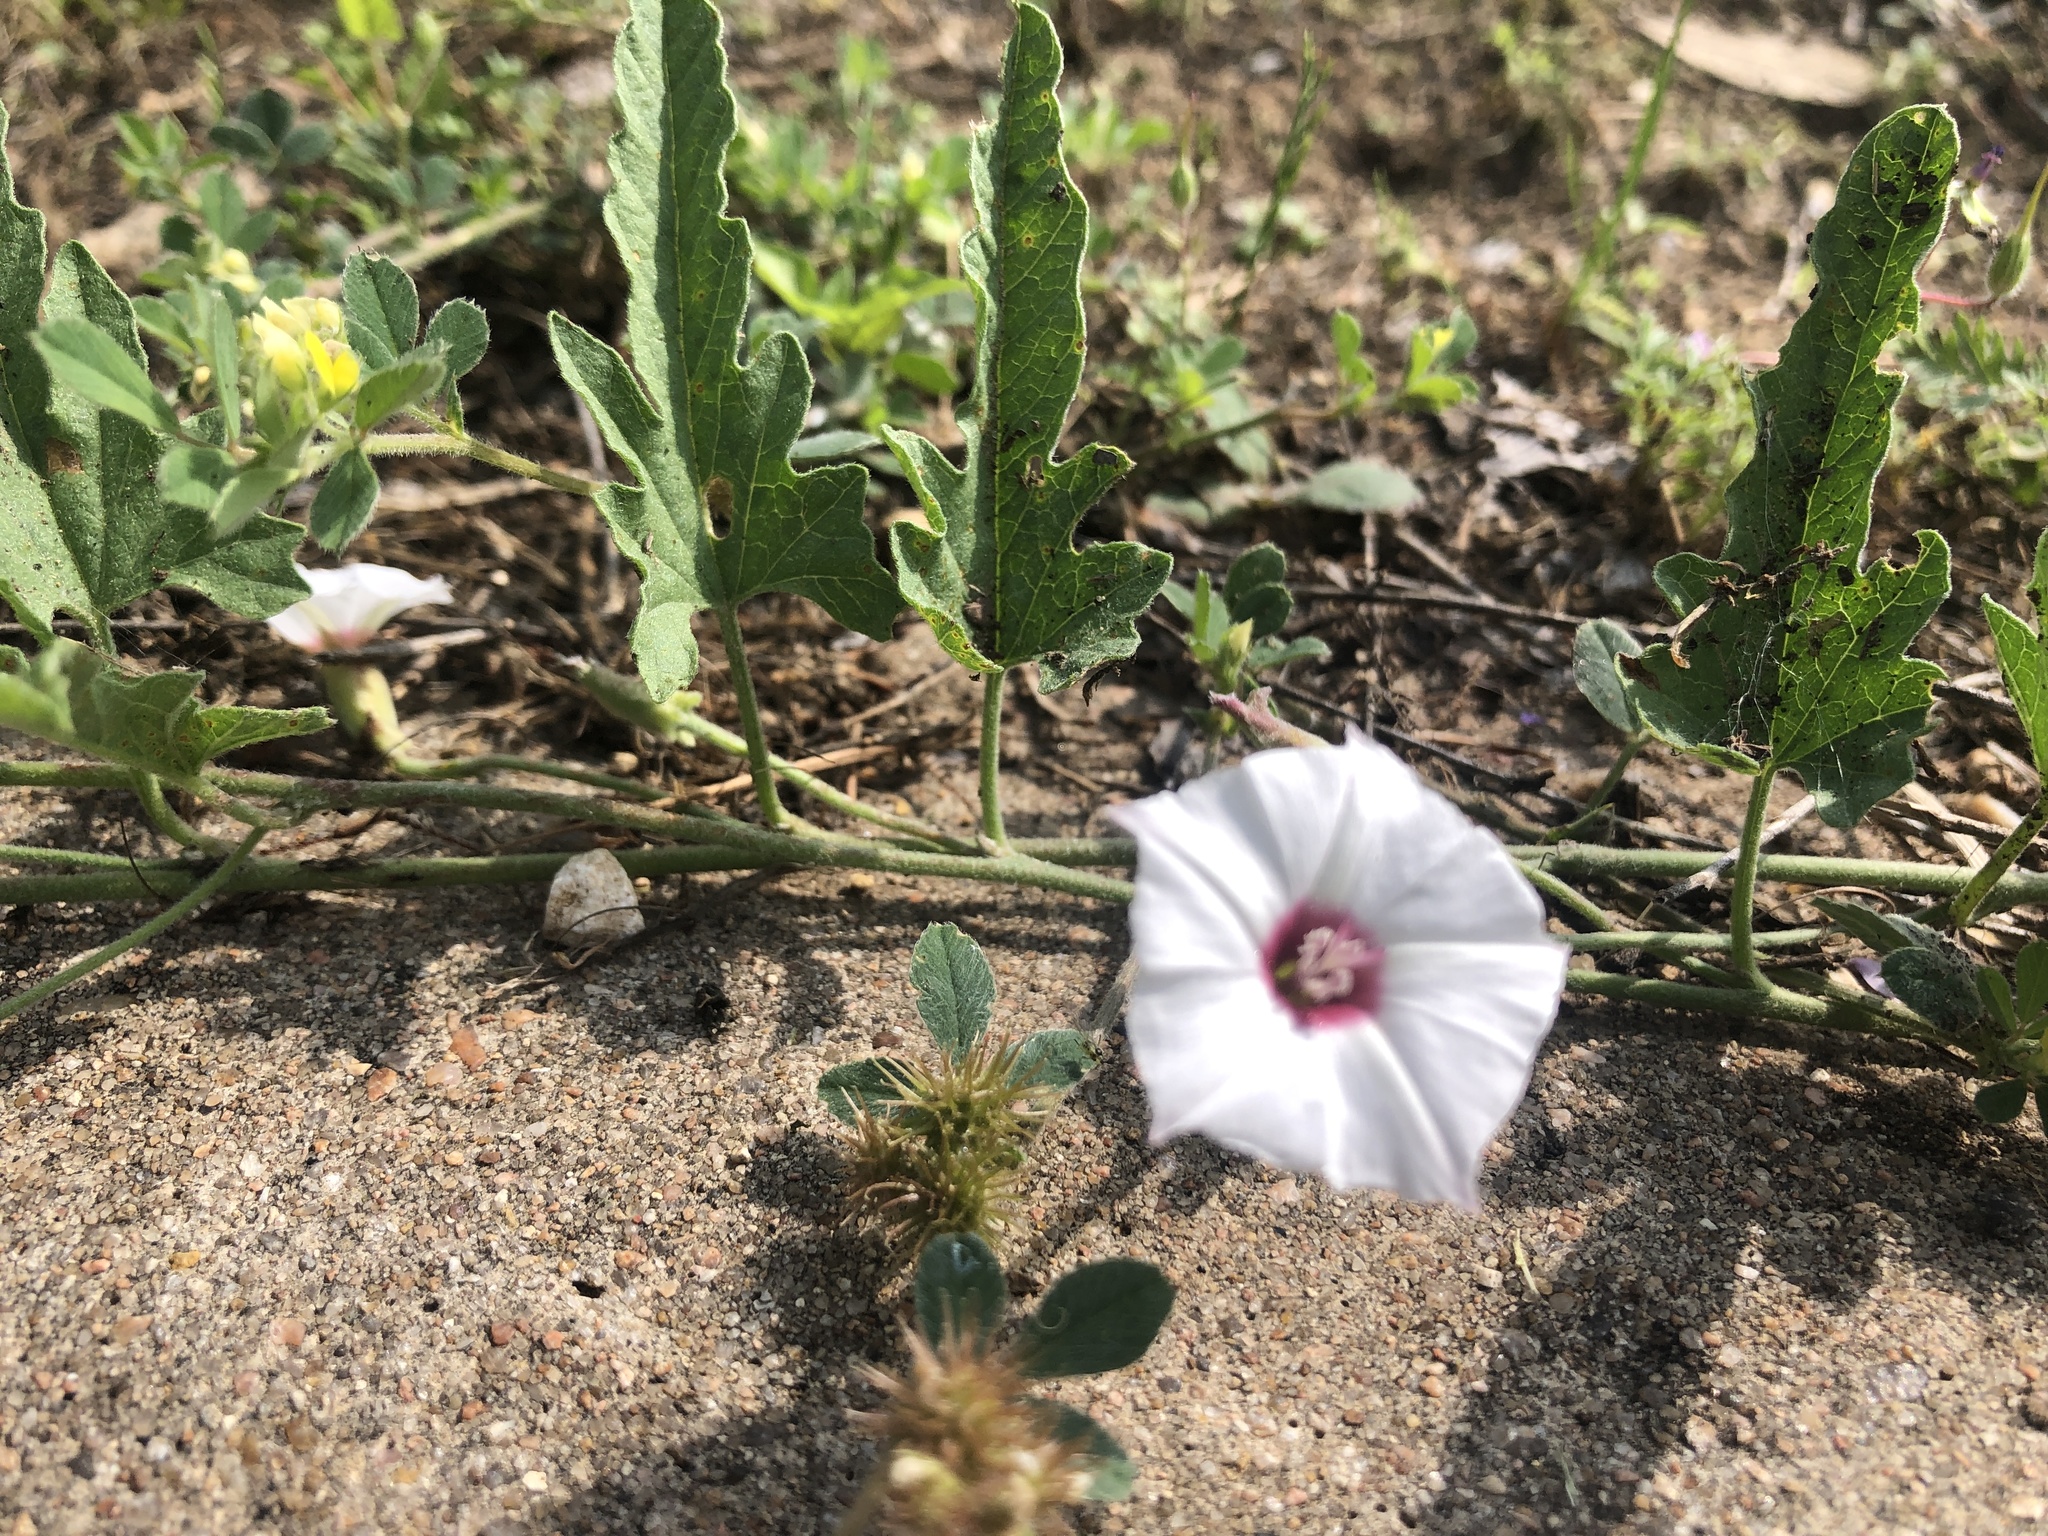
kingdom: Plantae
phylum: Tracheophyta
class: Magnoliopsida
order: Solanales
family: Convolvulaceae
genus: Convolvulus
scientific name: Convolvulus equitans
